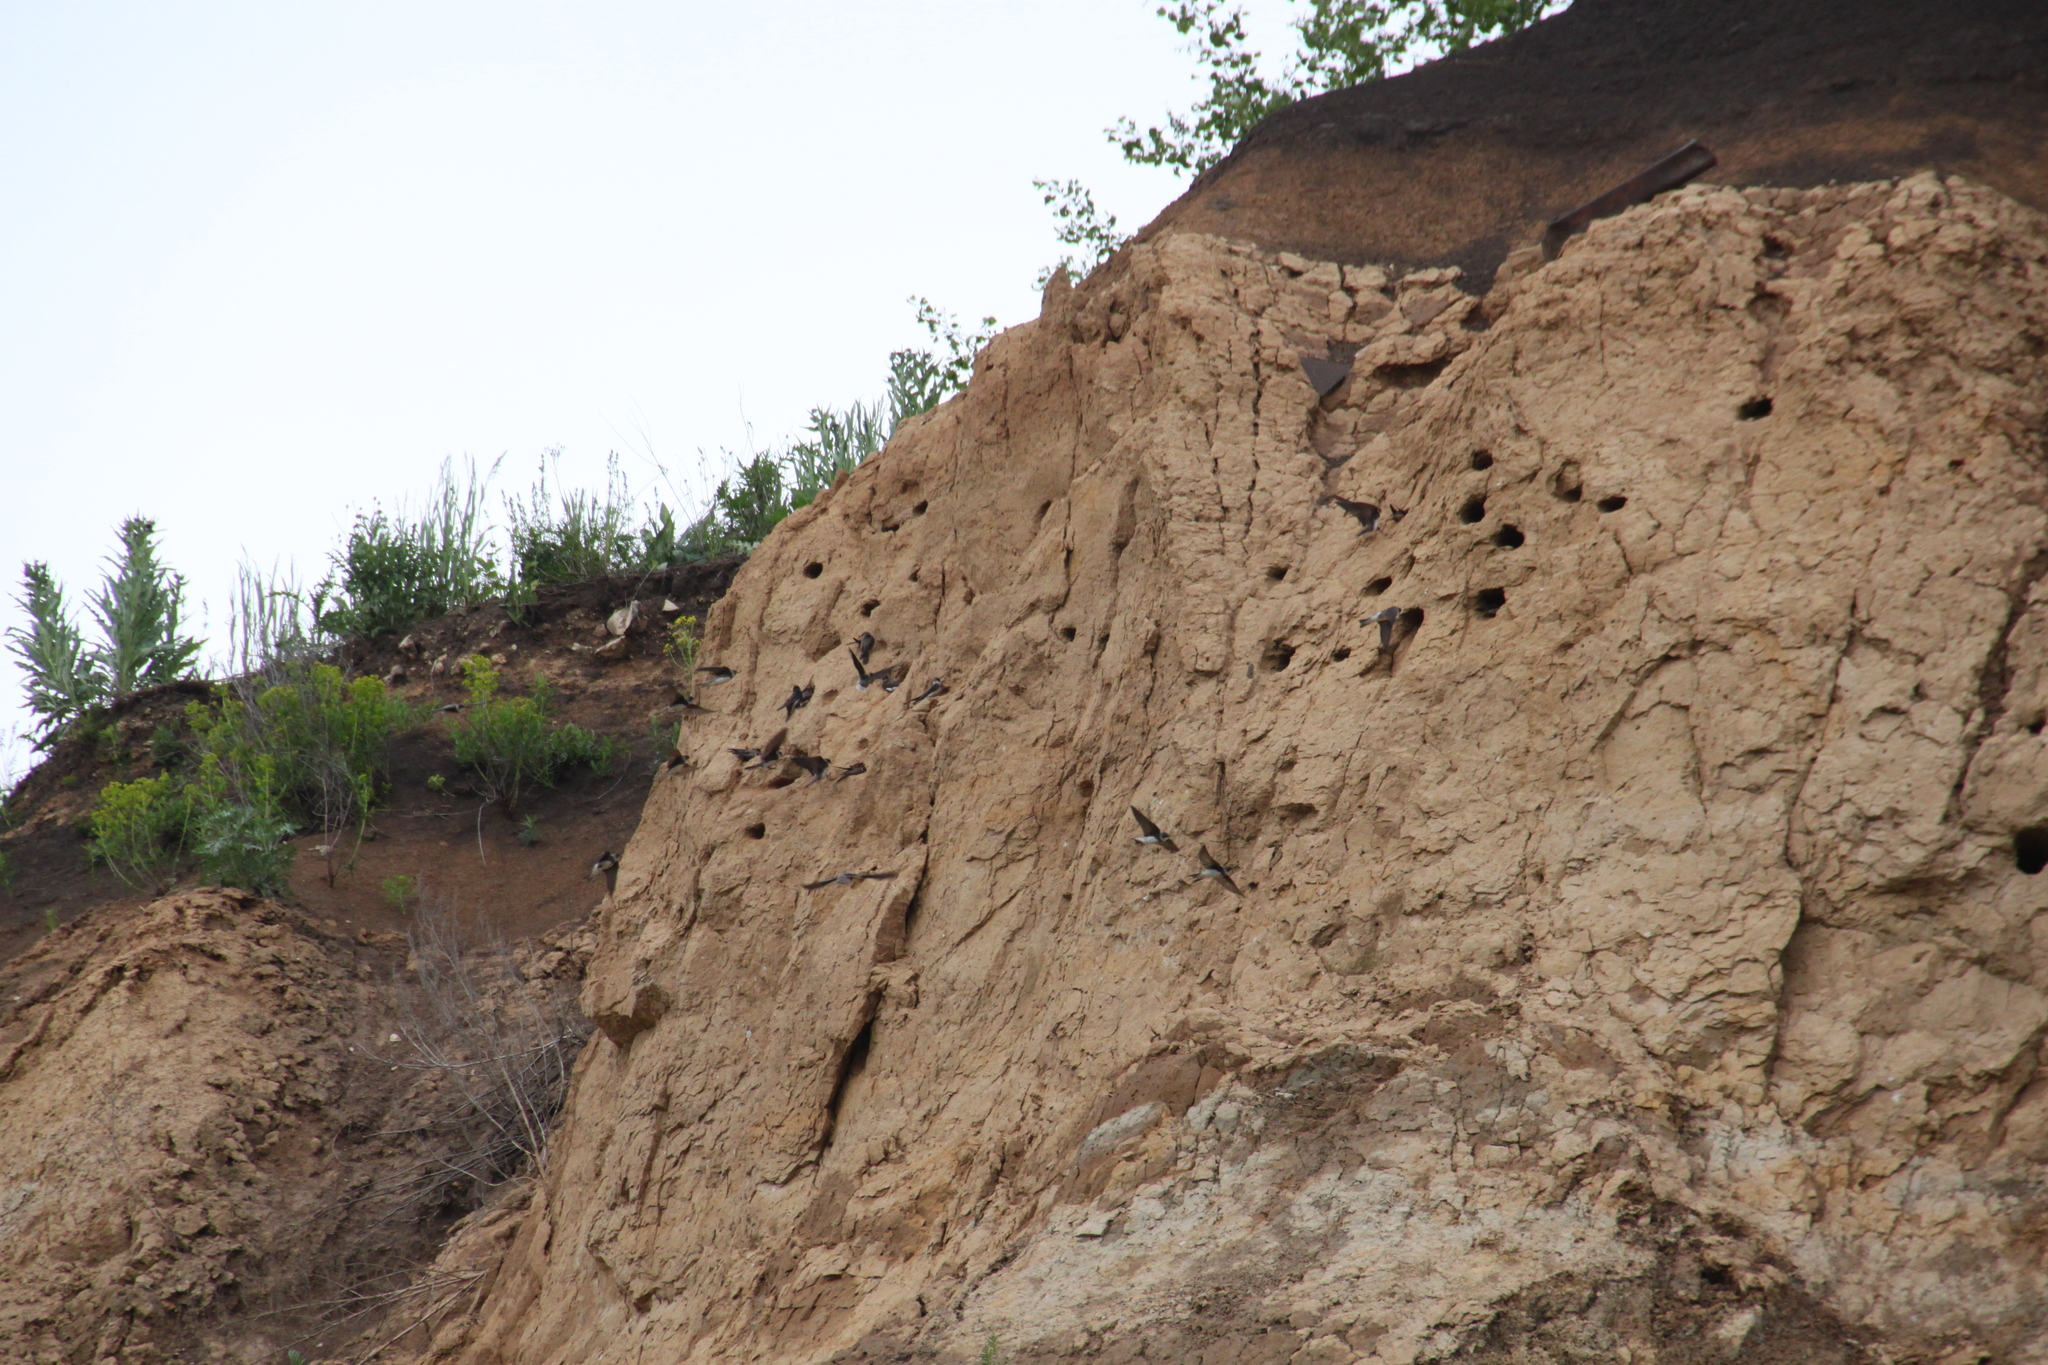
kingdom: Animalia
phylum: Chordata
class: Aves
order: Passeriformes
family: Hirundinidae
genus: Riparia
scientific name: Riparia riparia
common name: Sand martin
